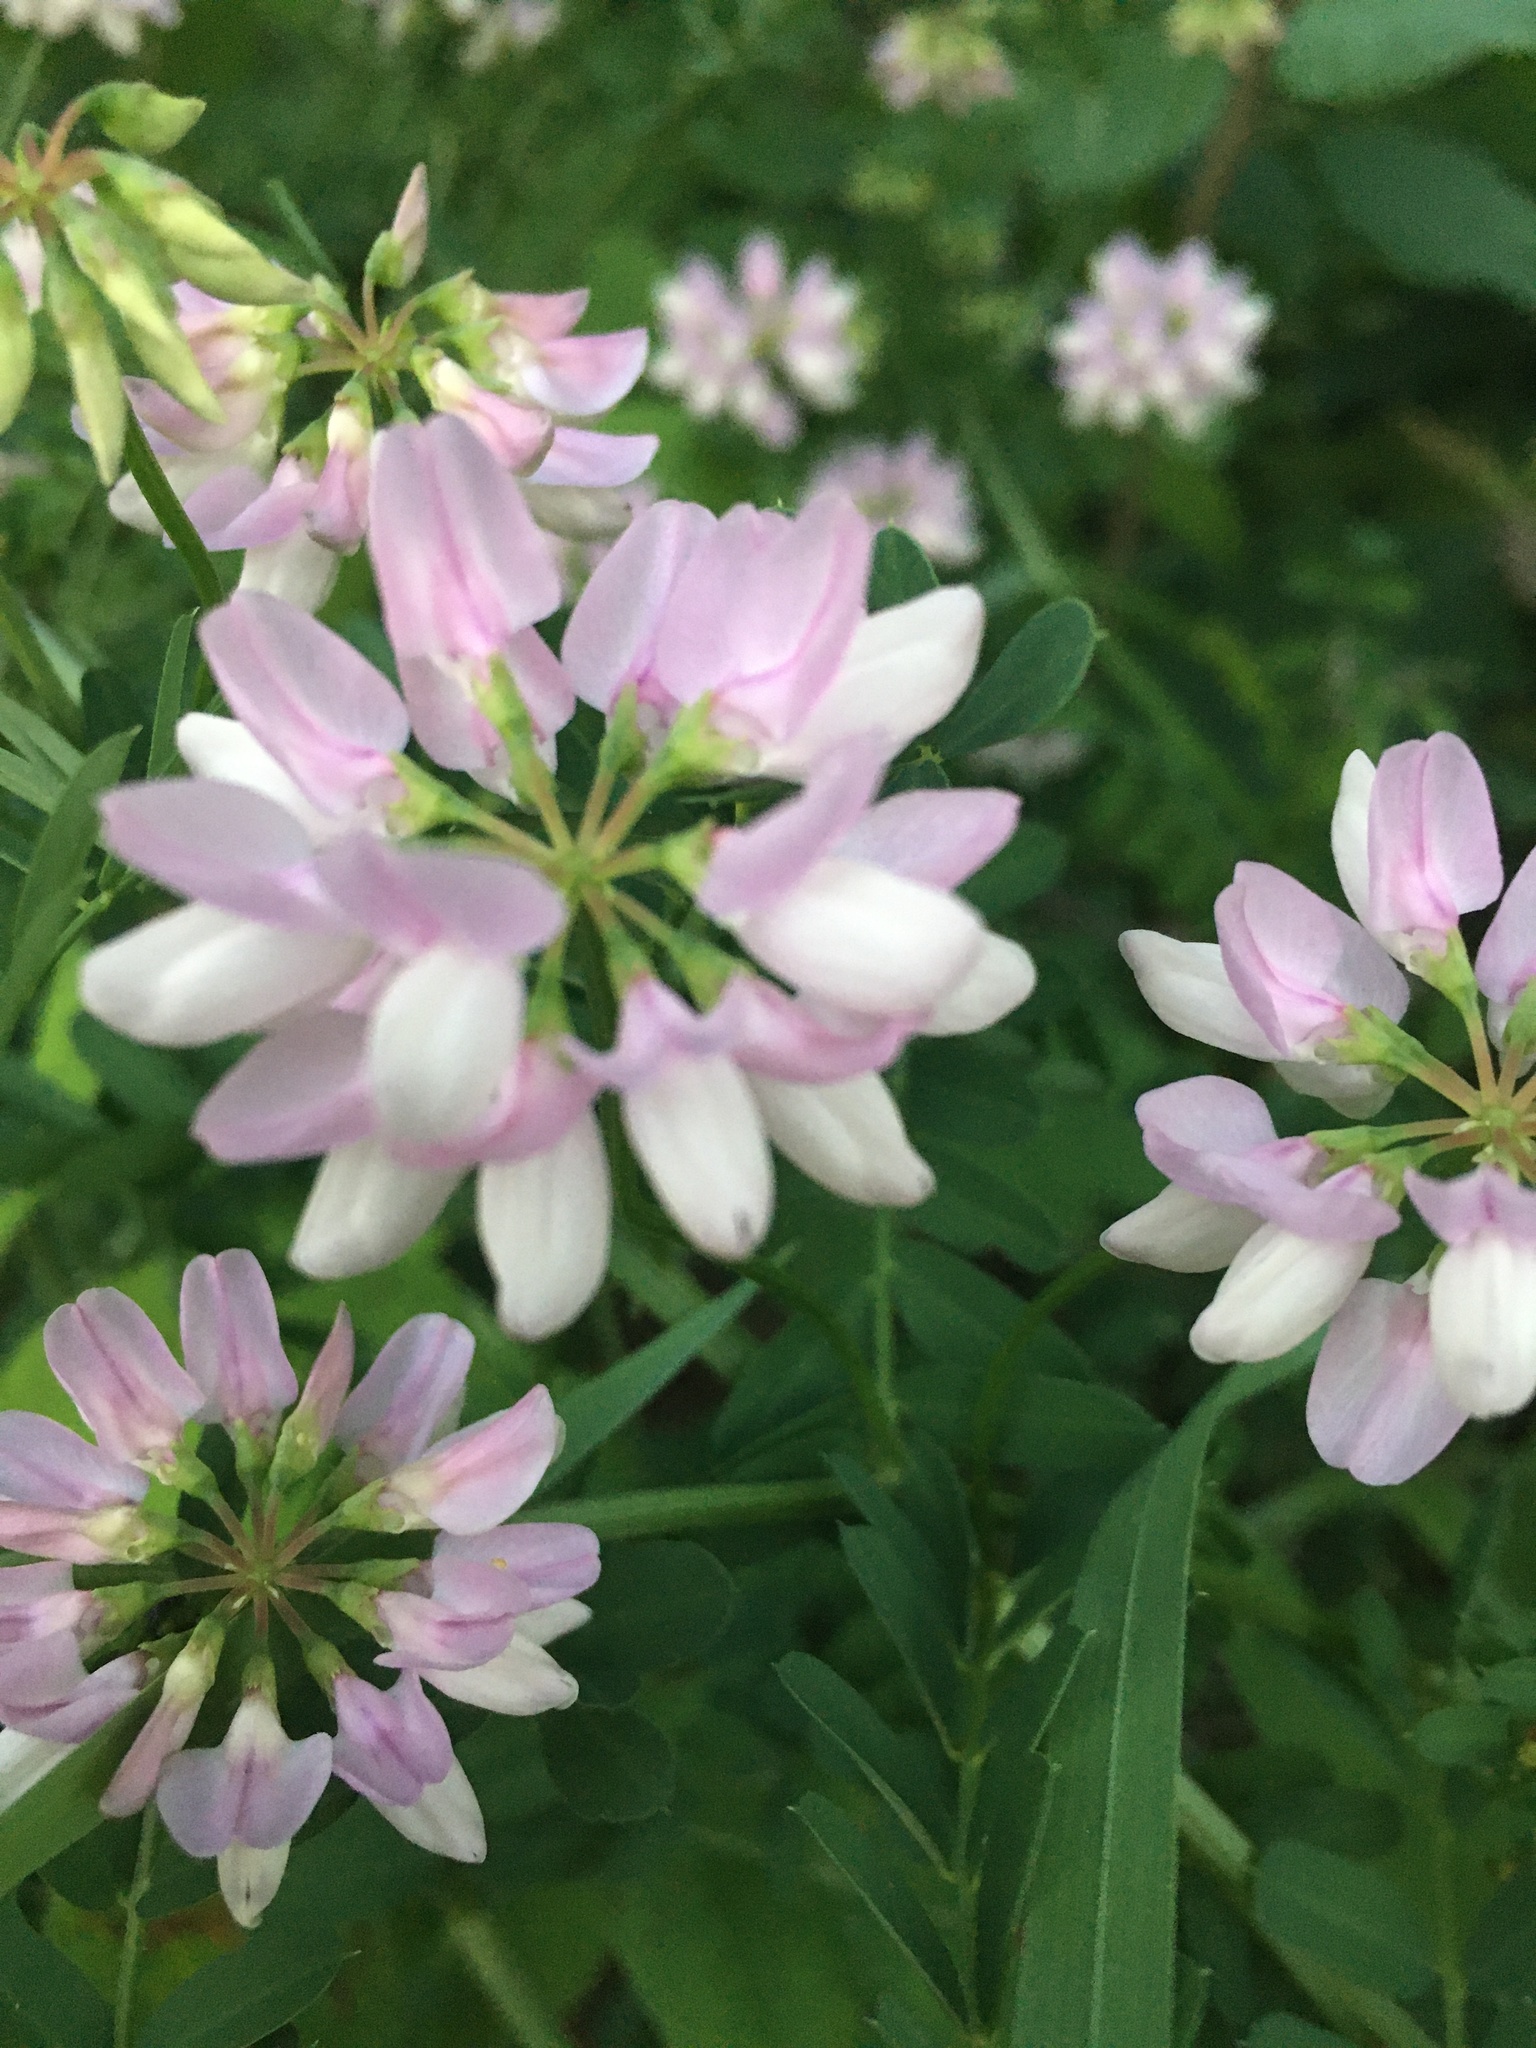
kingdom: Plantae
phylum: Tracheophyta
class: Magnoliopsida
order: Fabales
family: Fabaceae
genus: Coronilla
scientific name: Coronilla varia
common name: Crownvetch
